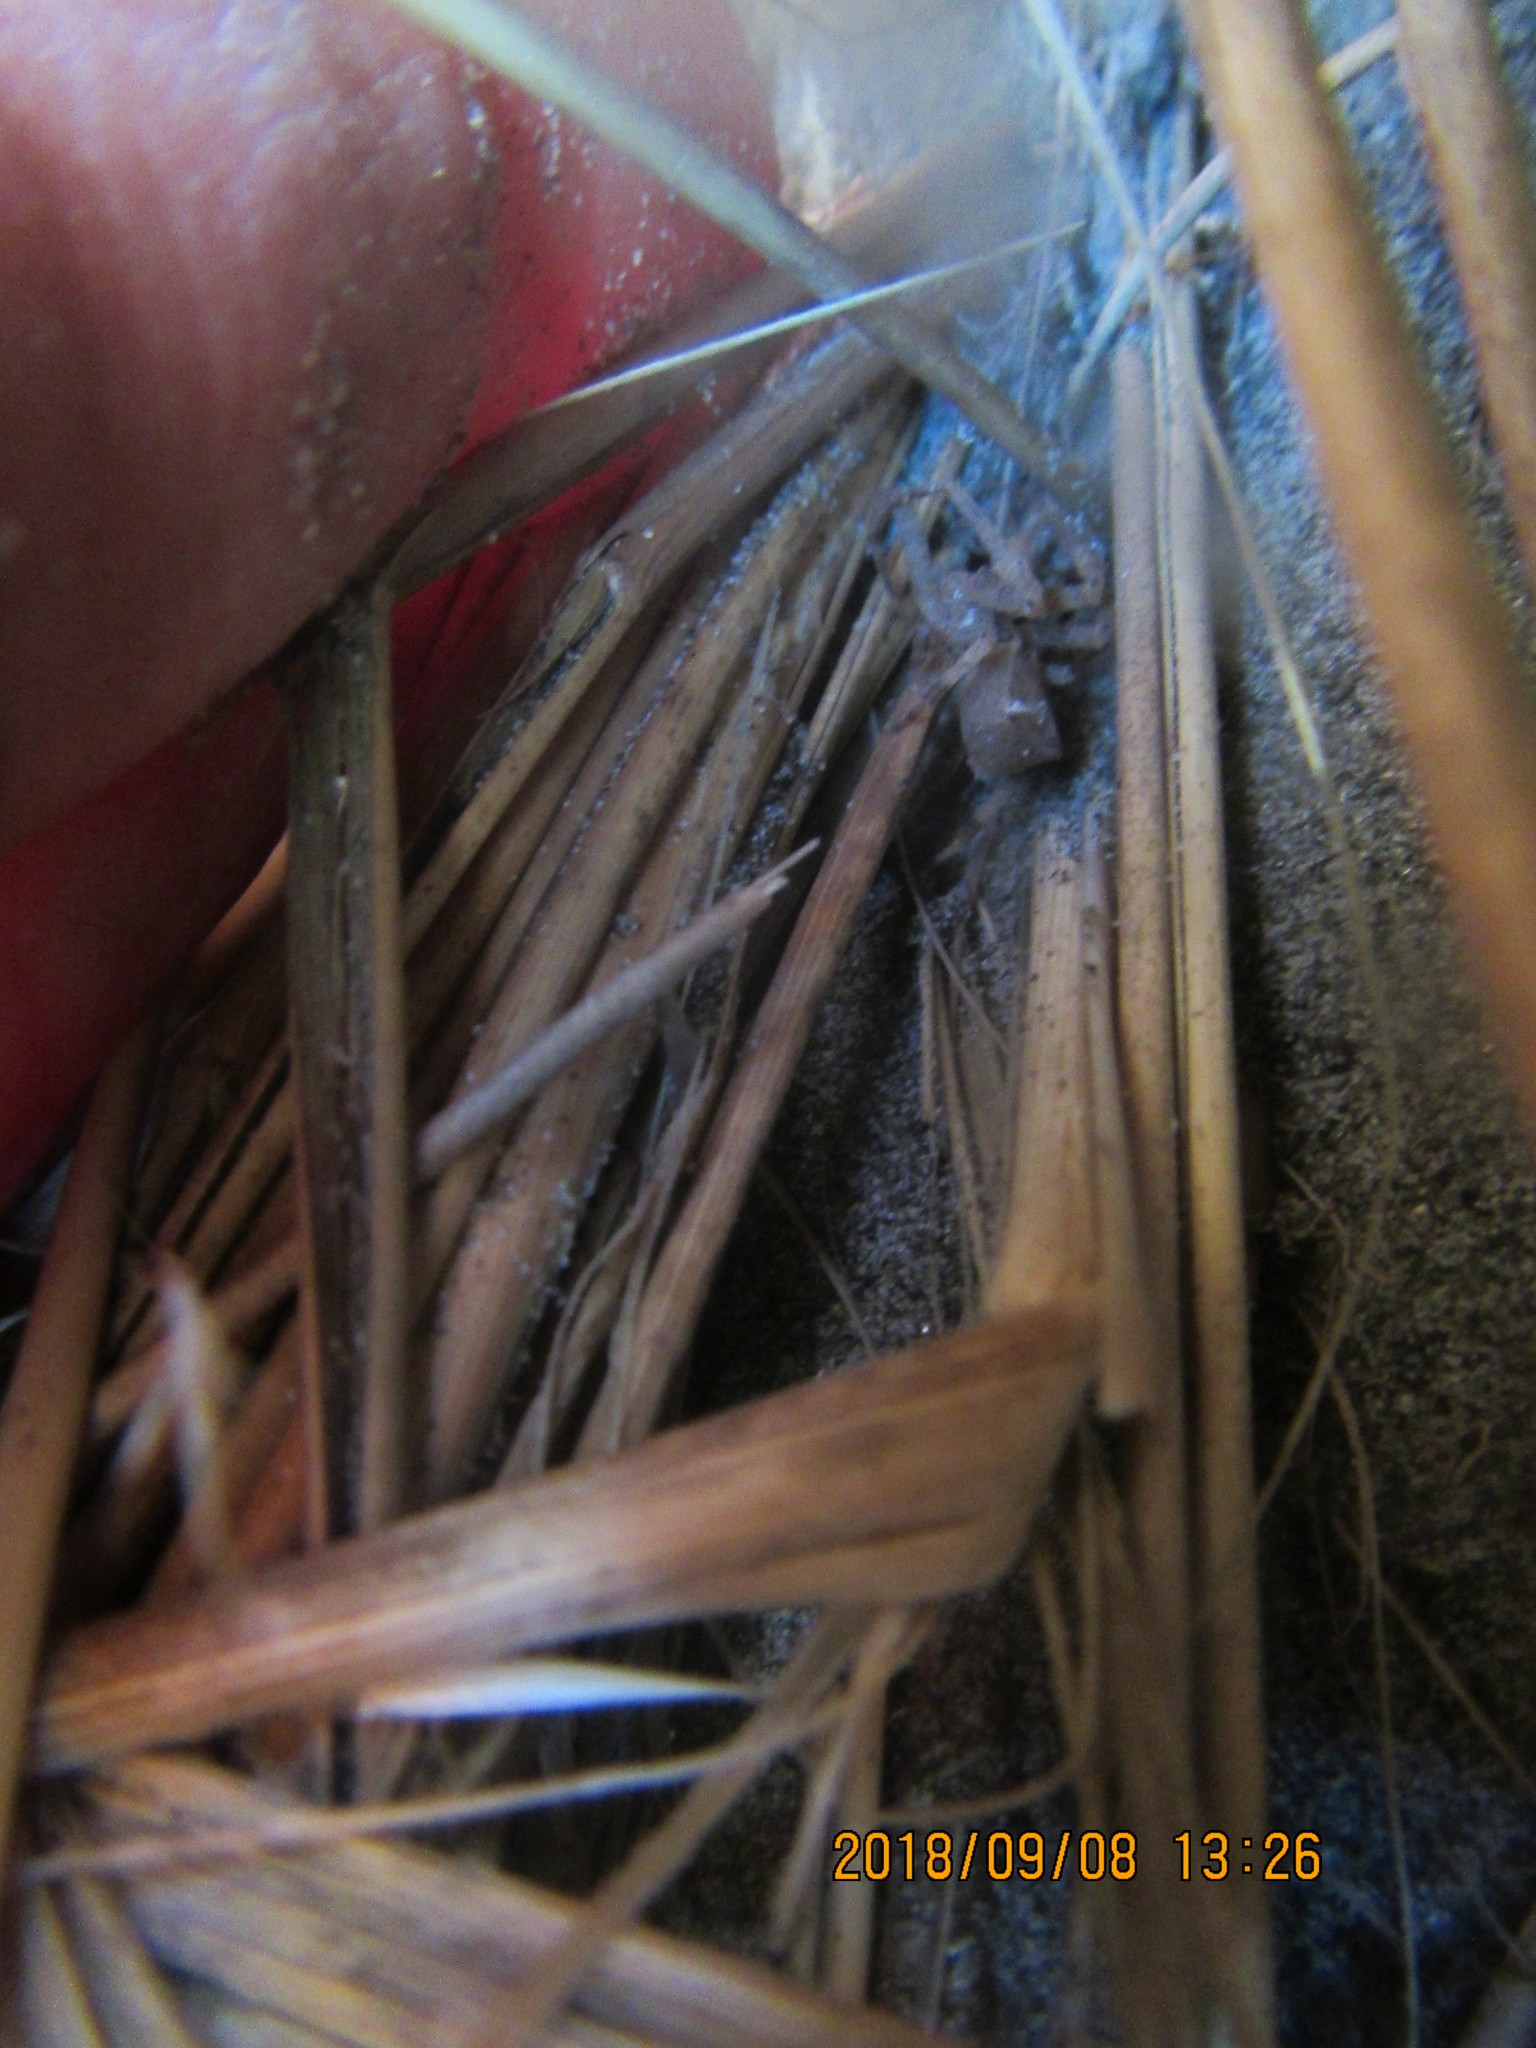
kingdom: Animalia
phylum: Arthropoda
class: Arachnida
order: Araneae
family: Thomisidae
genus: Sidymella
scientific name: Sidymella trapezia
